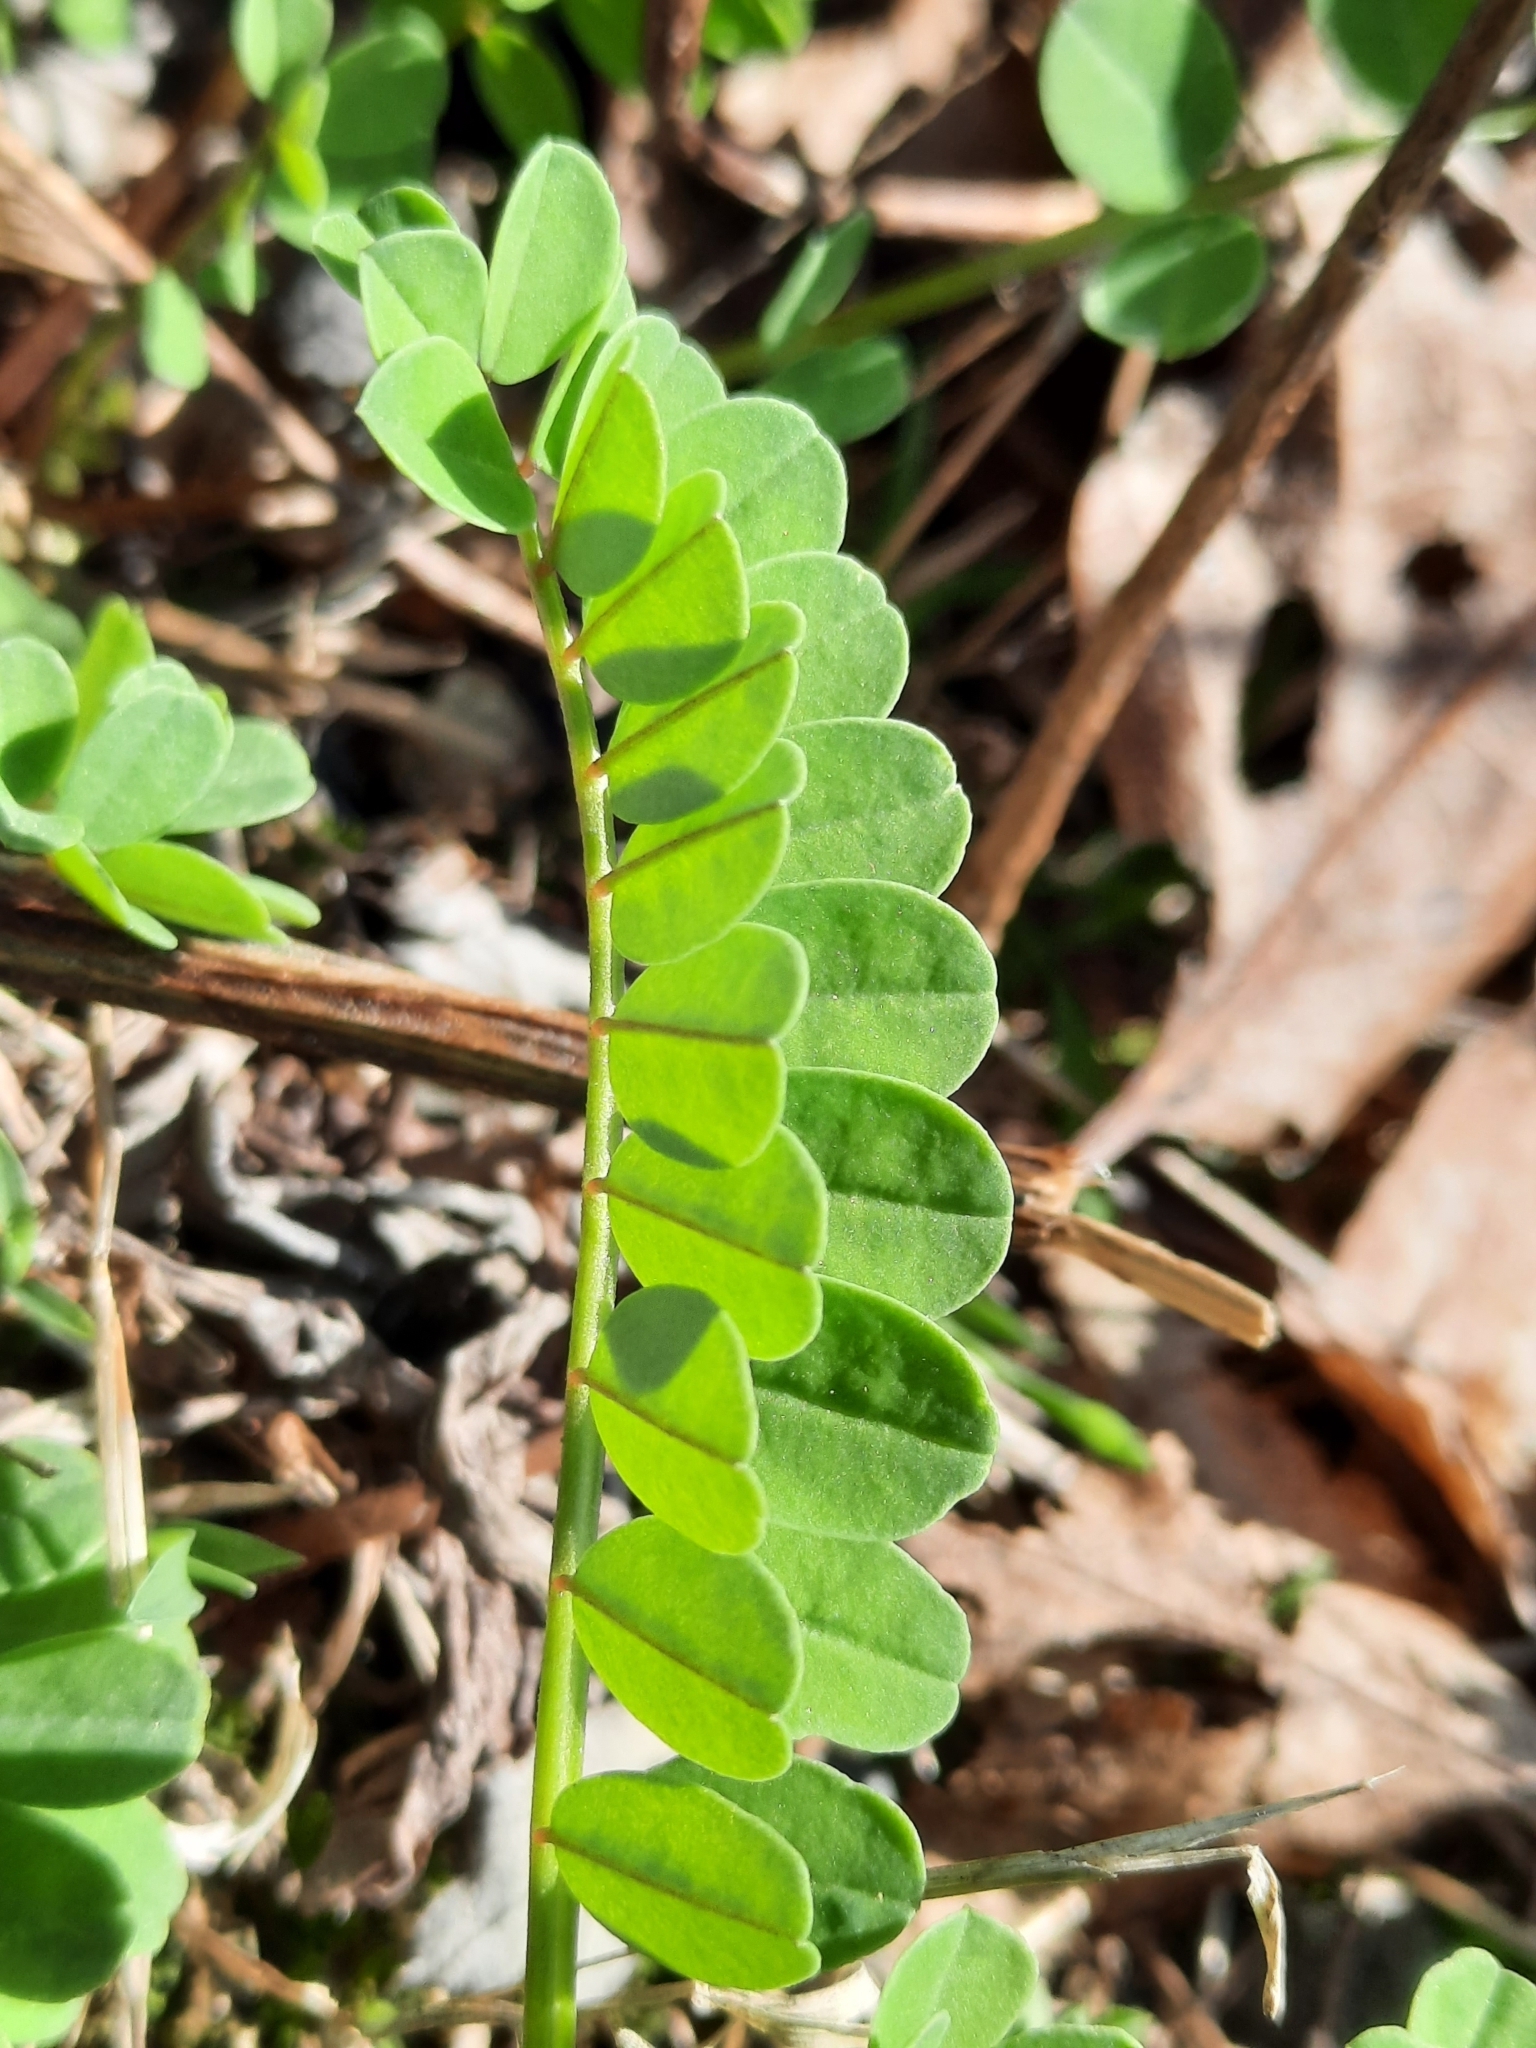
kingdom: Plantae
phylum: Tracheophyta
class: Magnoliopsida
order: Fabales
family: Fabaceae
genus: Coronilla
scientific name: Coronilla varia
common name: Crownvetch
